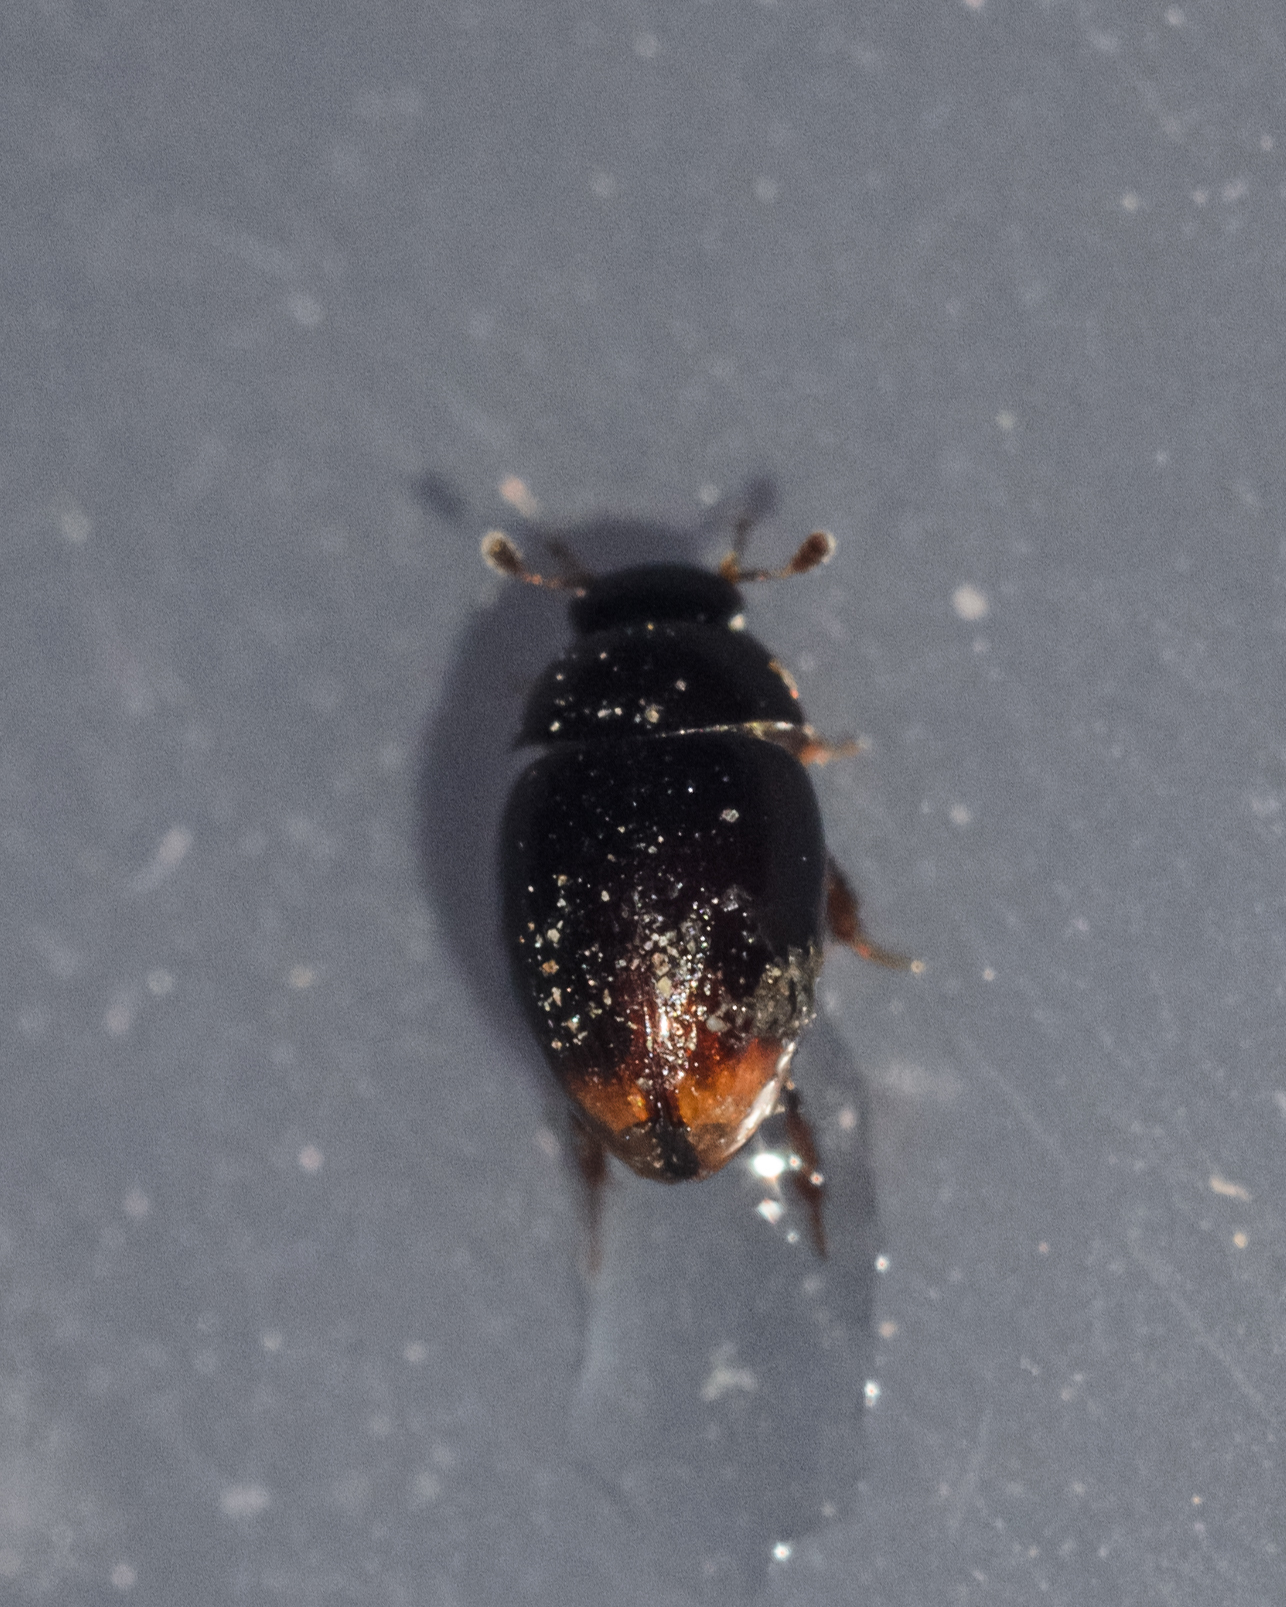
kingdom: Animalia
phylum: Arthropoda
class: Insecta
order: Coleoptera
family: Hydrophilidae
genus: Cercyon
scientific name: Cercyon
